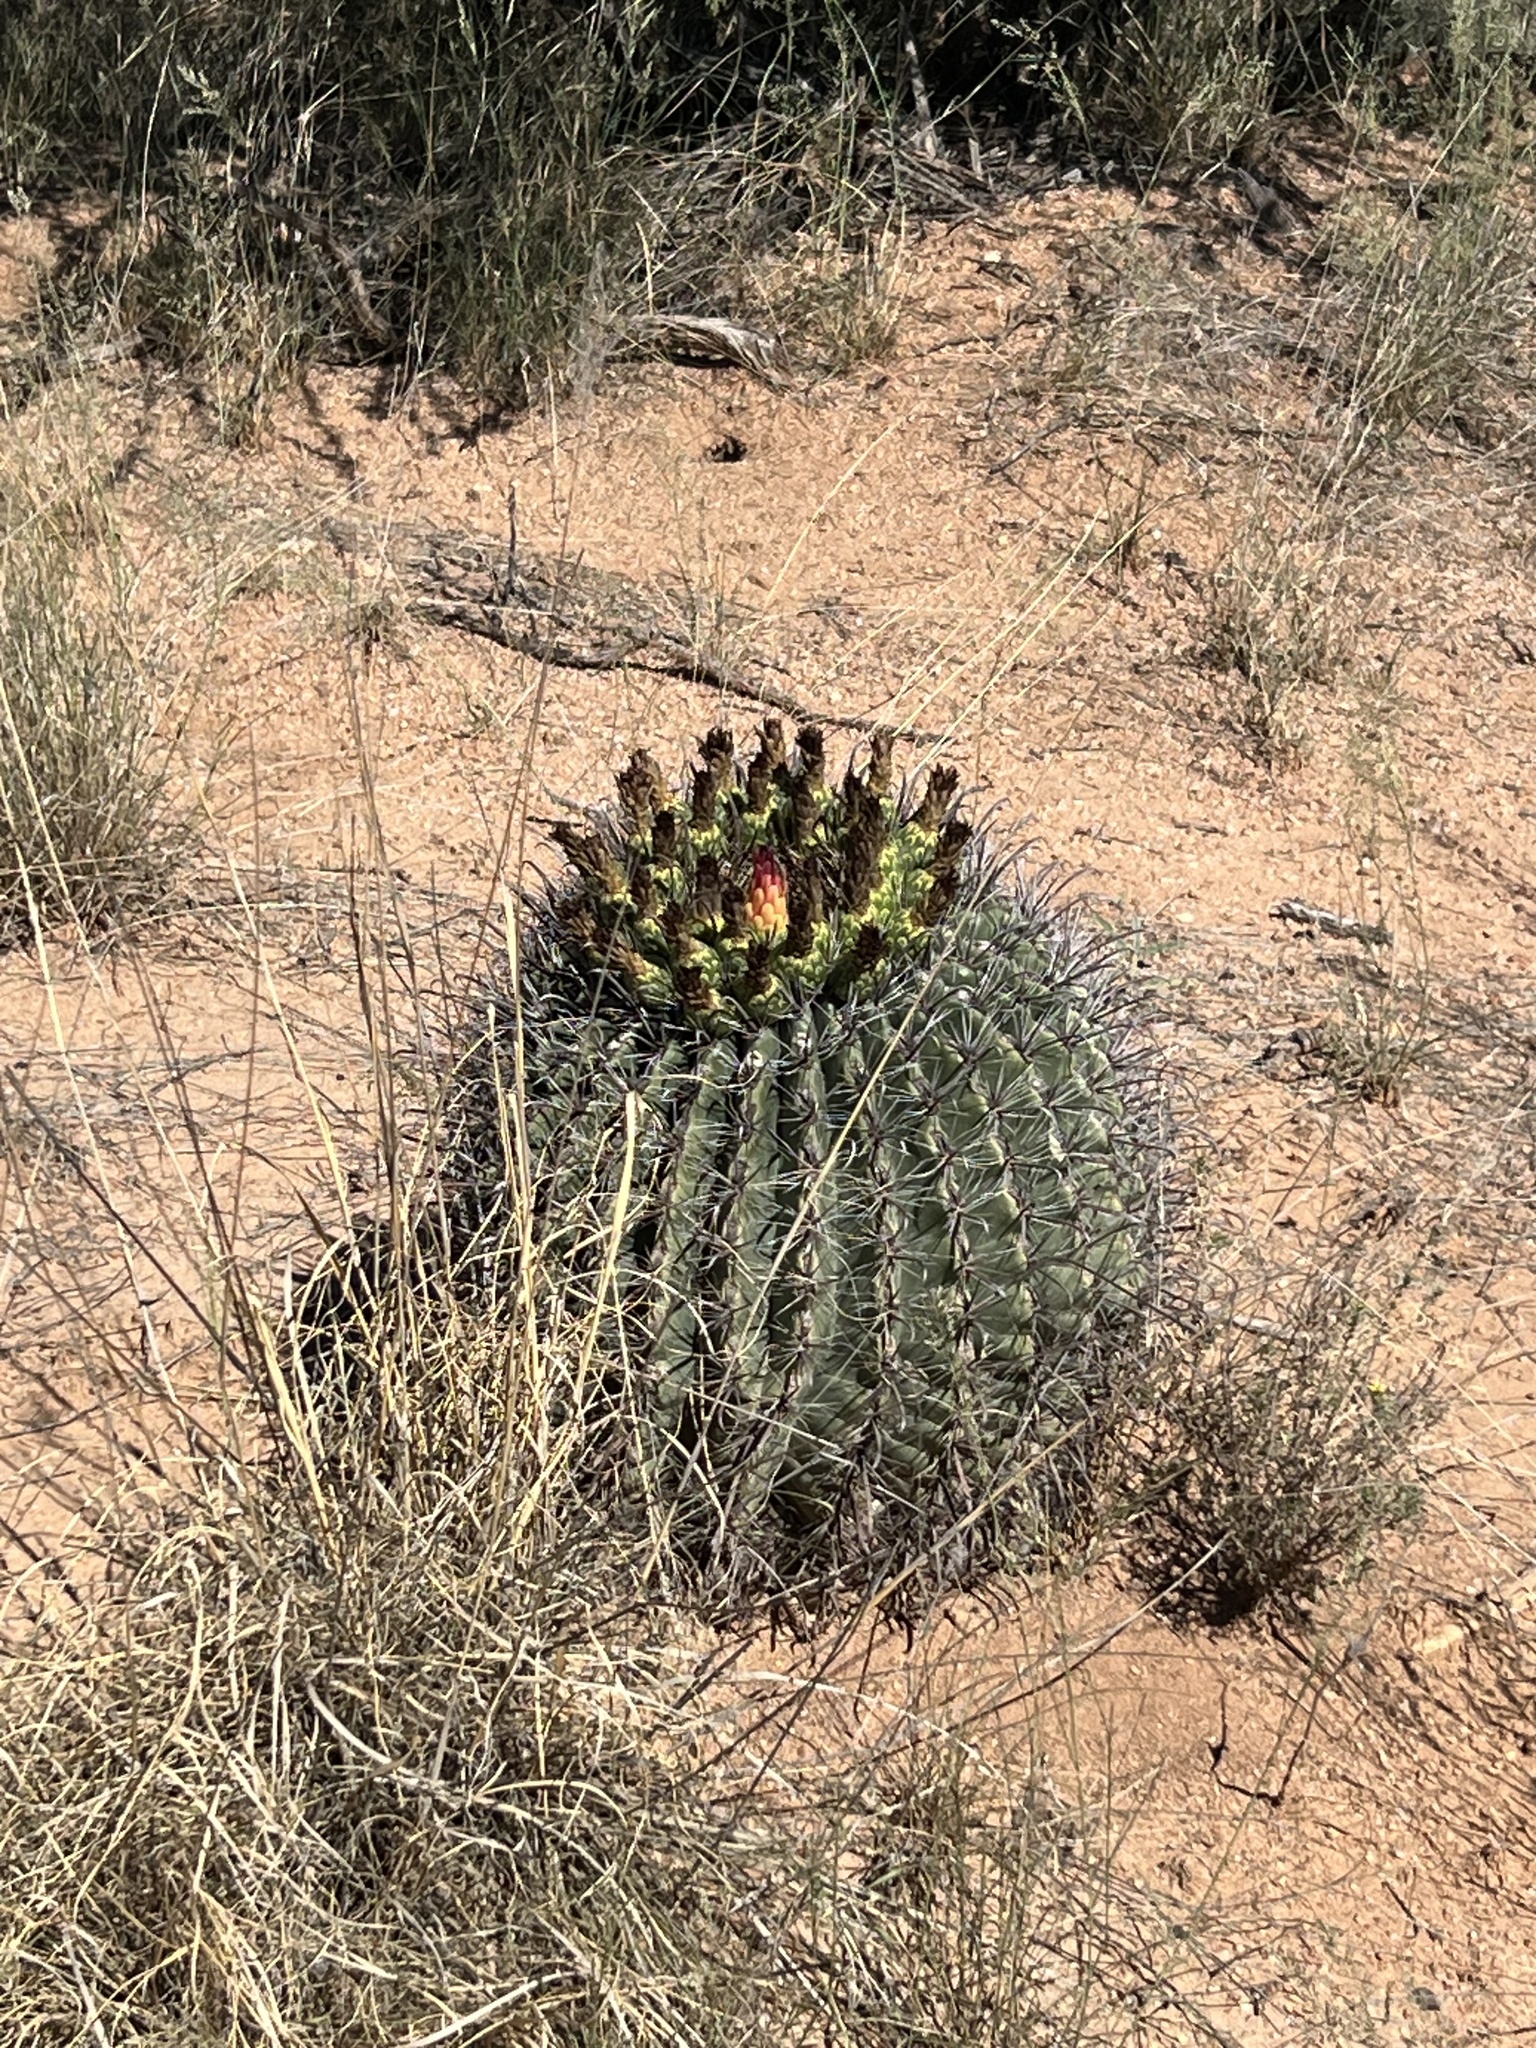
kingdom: Plantae
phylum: Tracheophyta
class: Magnoliopsida
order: Caryophyllales
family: Cactaceae
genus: Ferocactus
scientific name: Ferocactus wislizeni
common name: Candy barrel cactus
